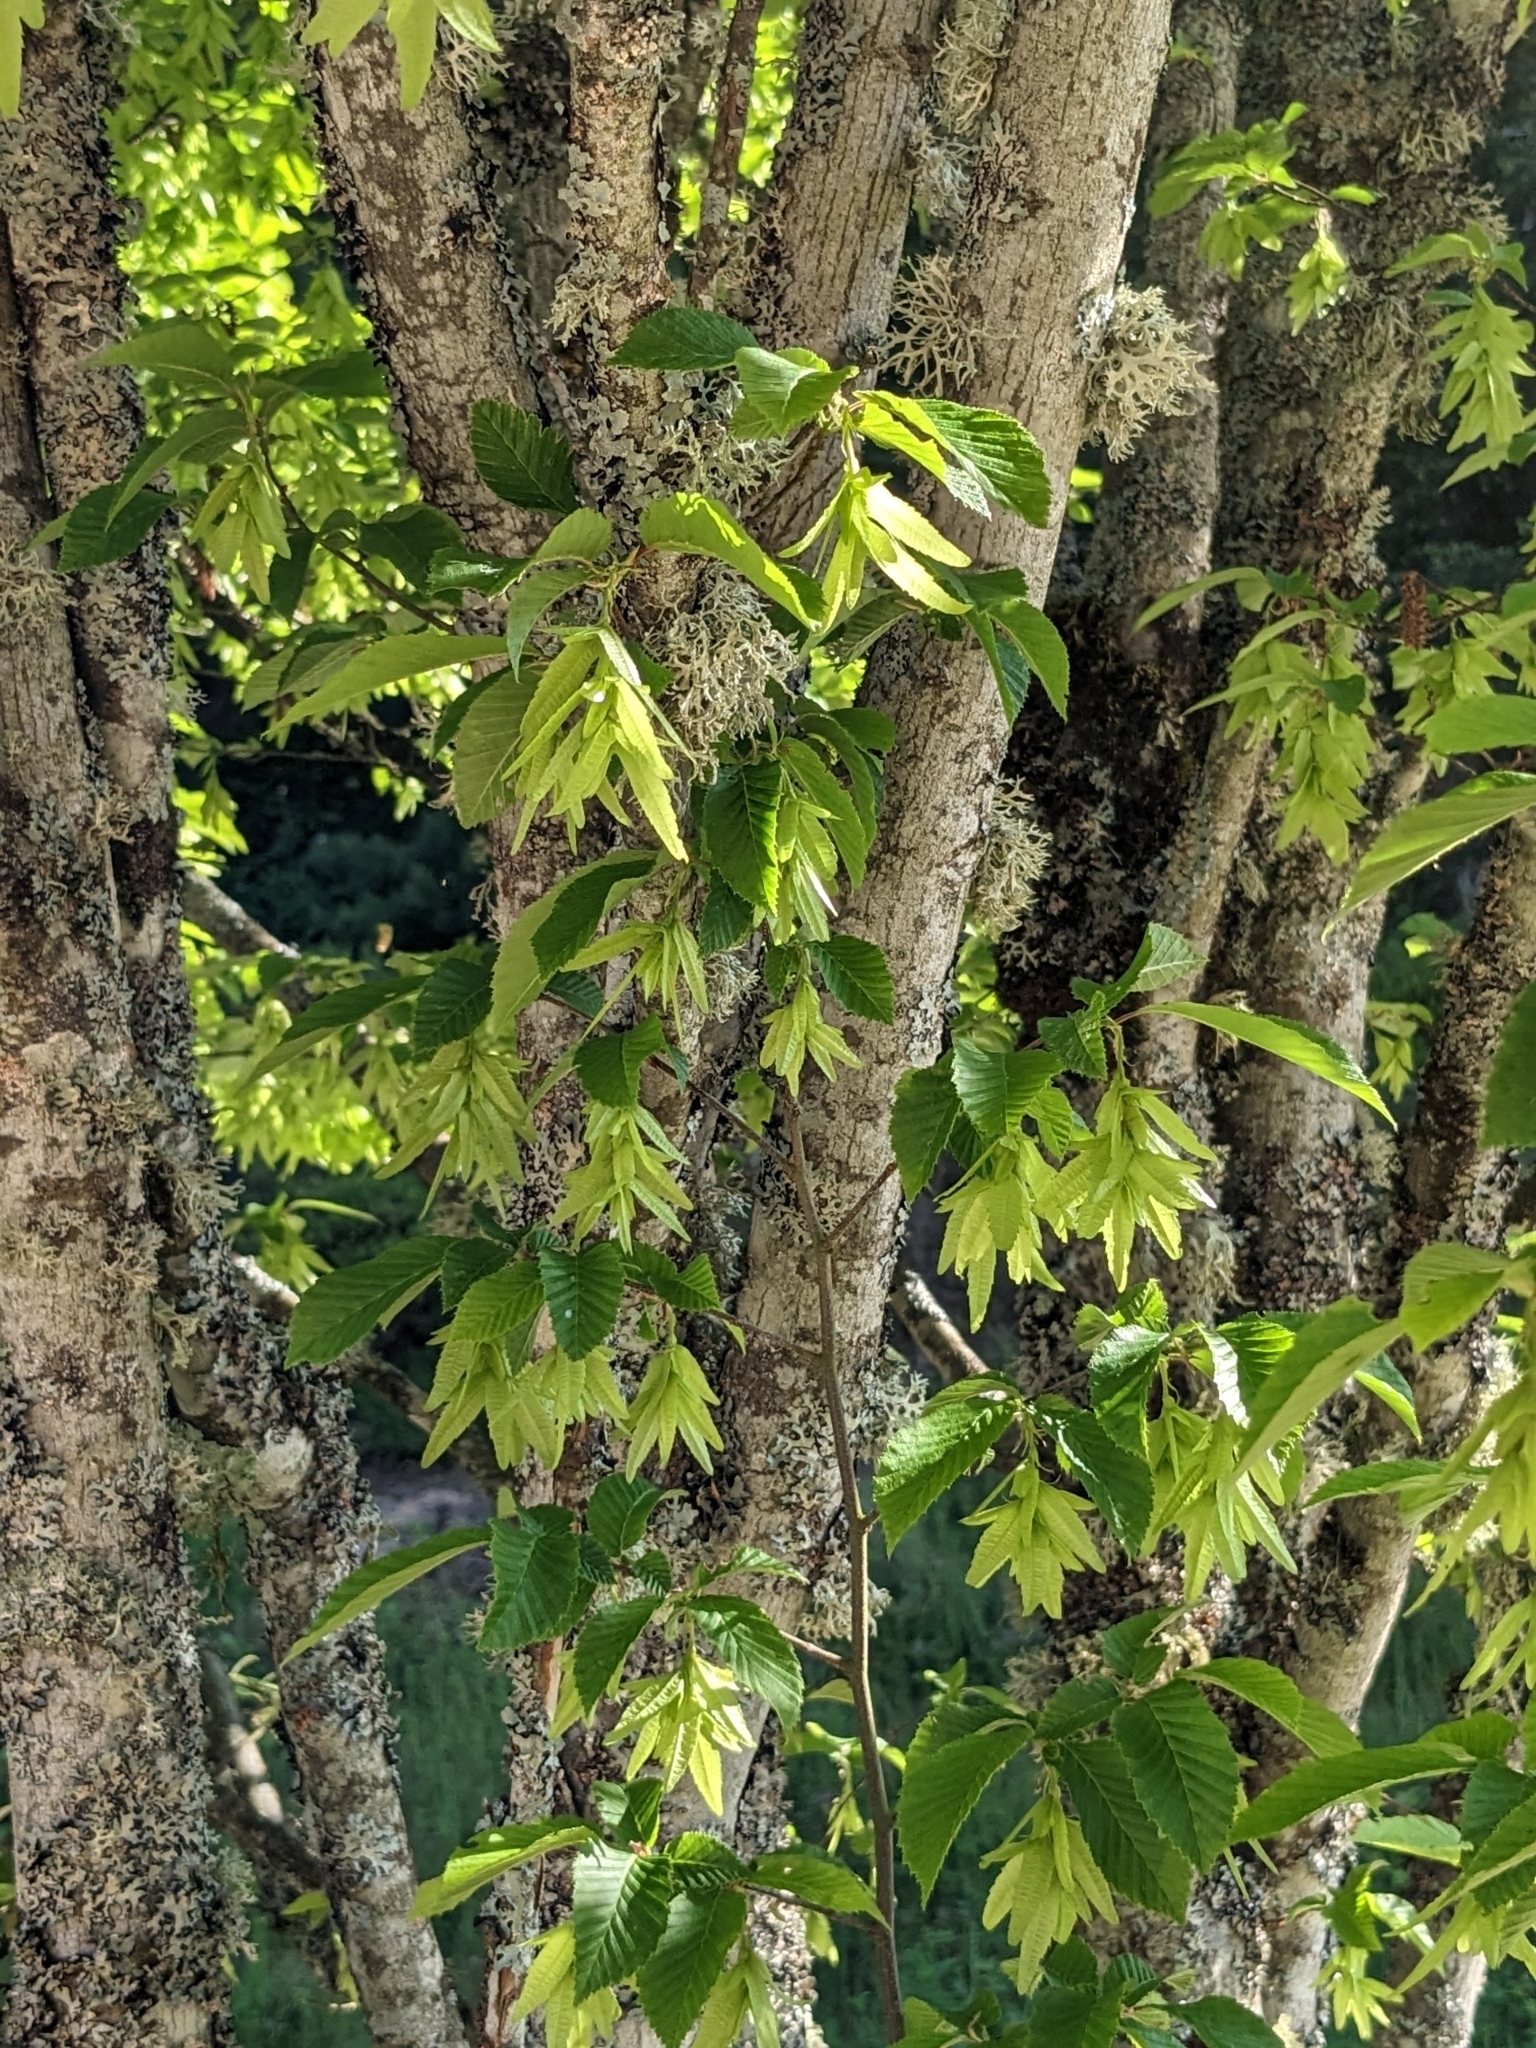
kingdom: Plantae
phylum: Tracheophyta
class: Magnoliopsida
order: Fagales
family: Betulaceae
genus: Carpinus
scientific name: Carpinus betulus
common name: Hornbeam
